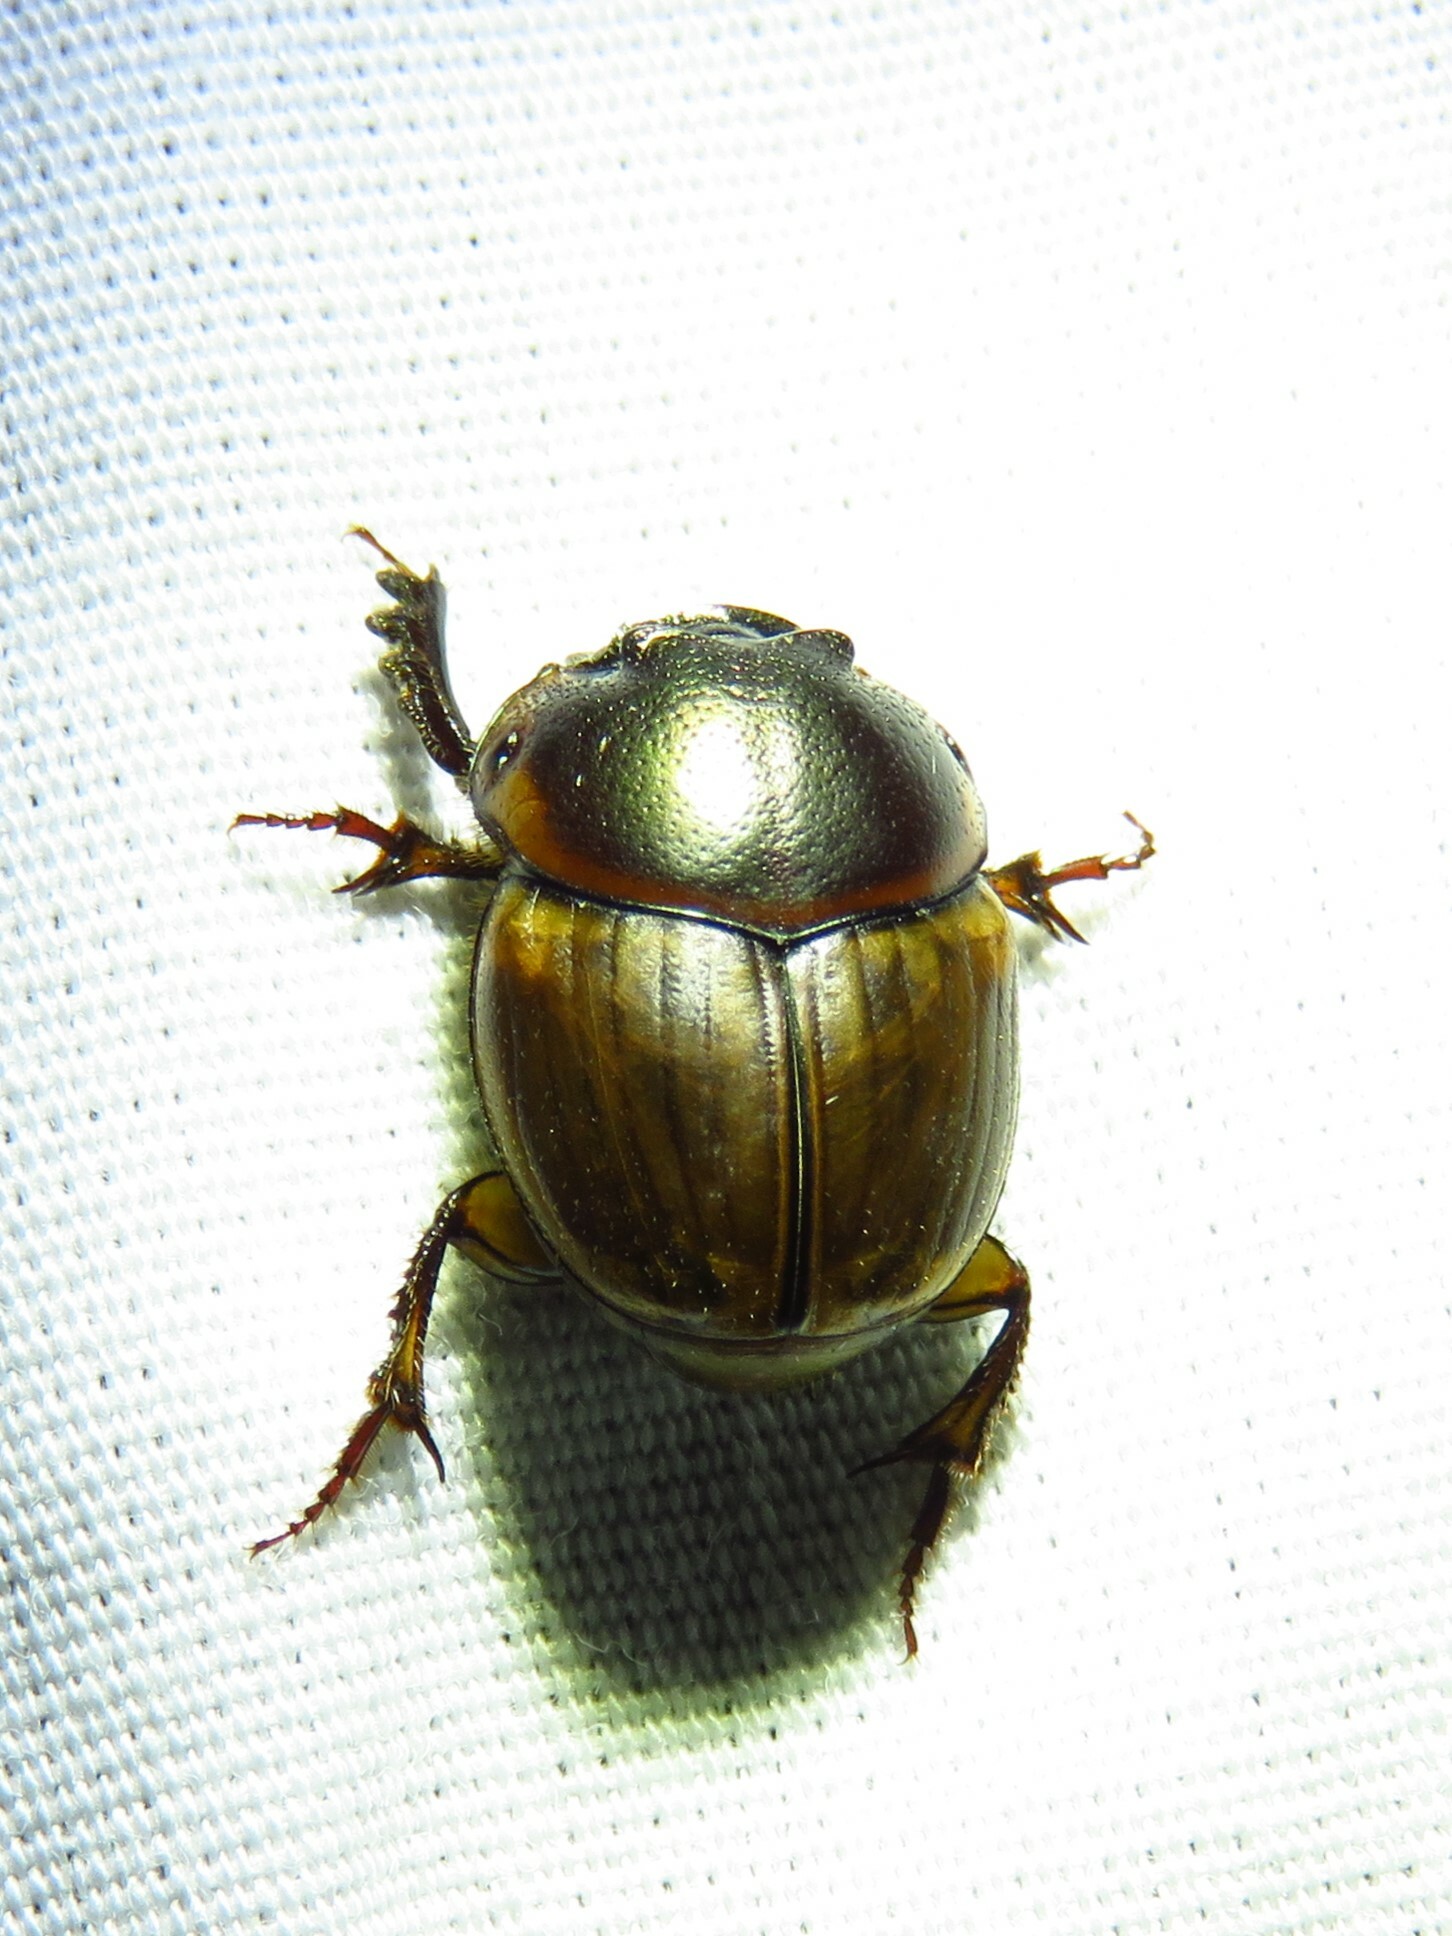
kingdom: Animalia
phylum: Arthropoda
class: Insecta
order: Coleoptera
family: Scarabaeidae
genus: Digitonthophagus
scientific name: Digitonthophagus gazella
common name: Brown dung beetle
